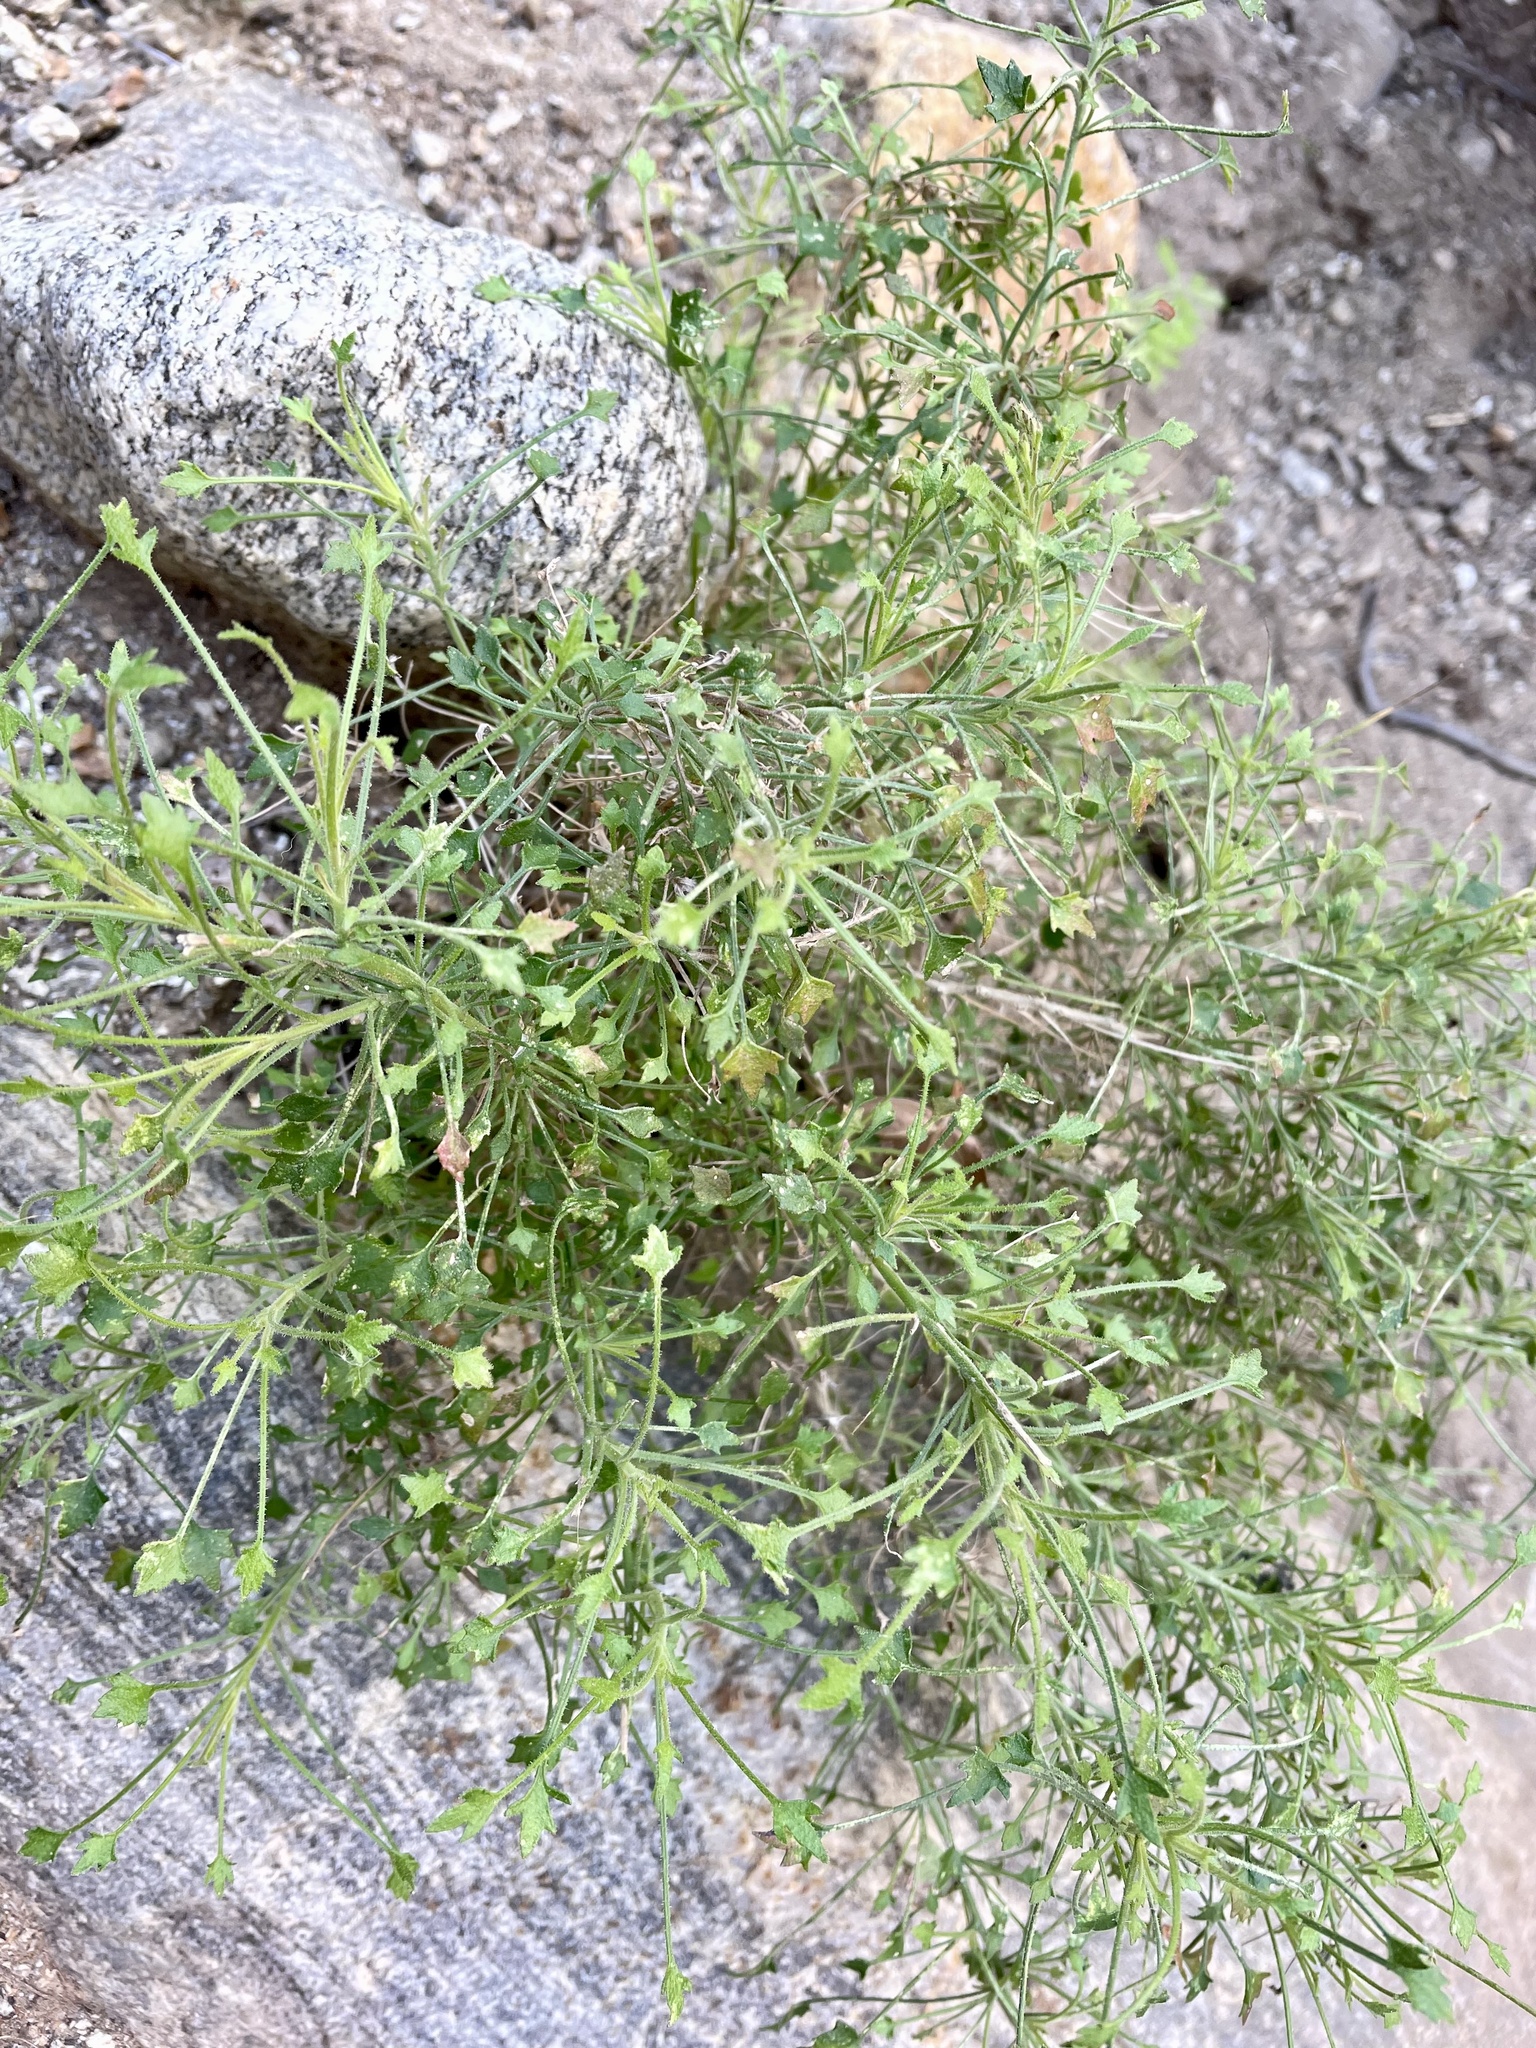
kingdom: Plantae
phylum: Tracheophyta
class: Magnoliopsida
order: Asterales
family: Asteraceae
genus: Pleurocoronis
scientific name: Pleurocoronis pluriseta
